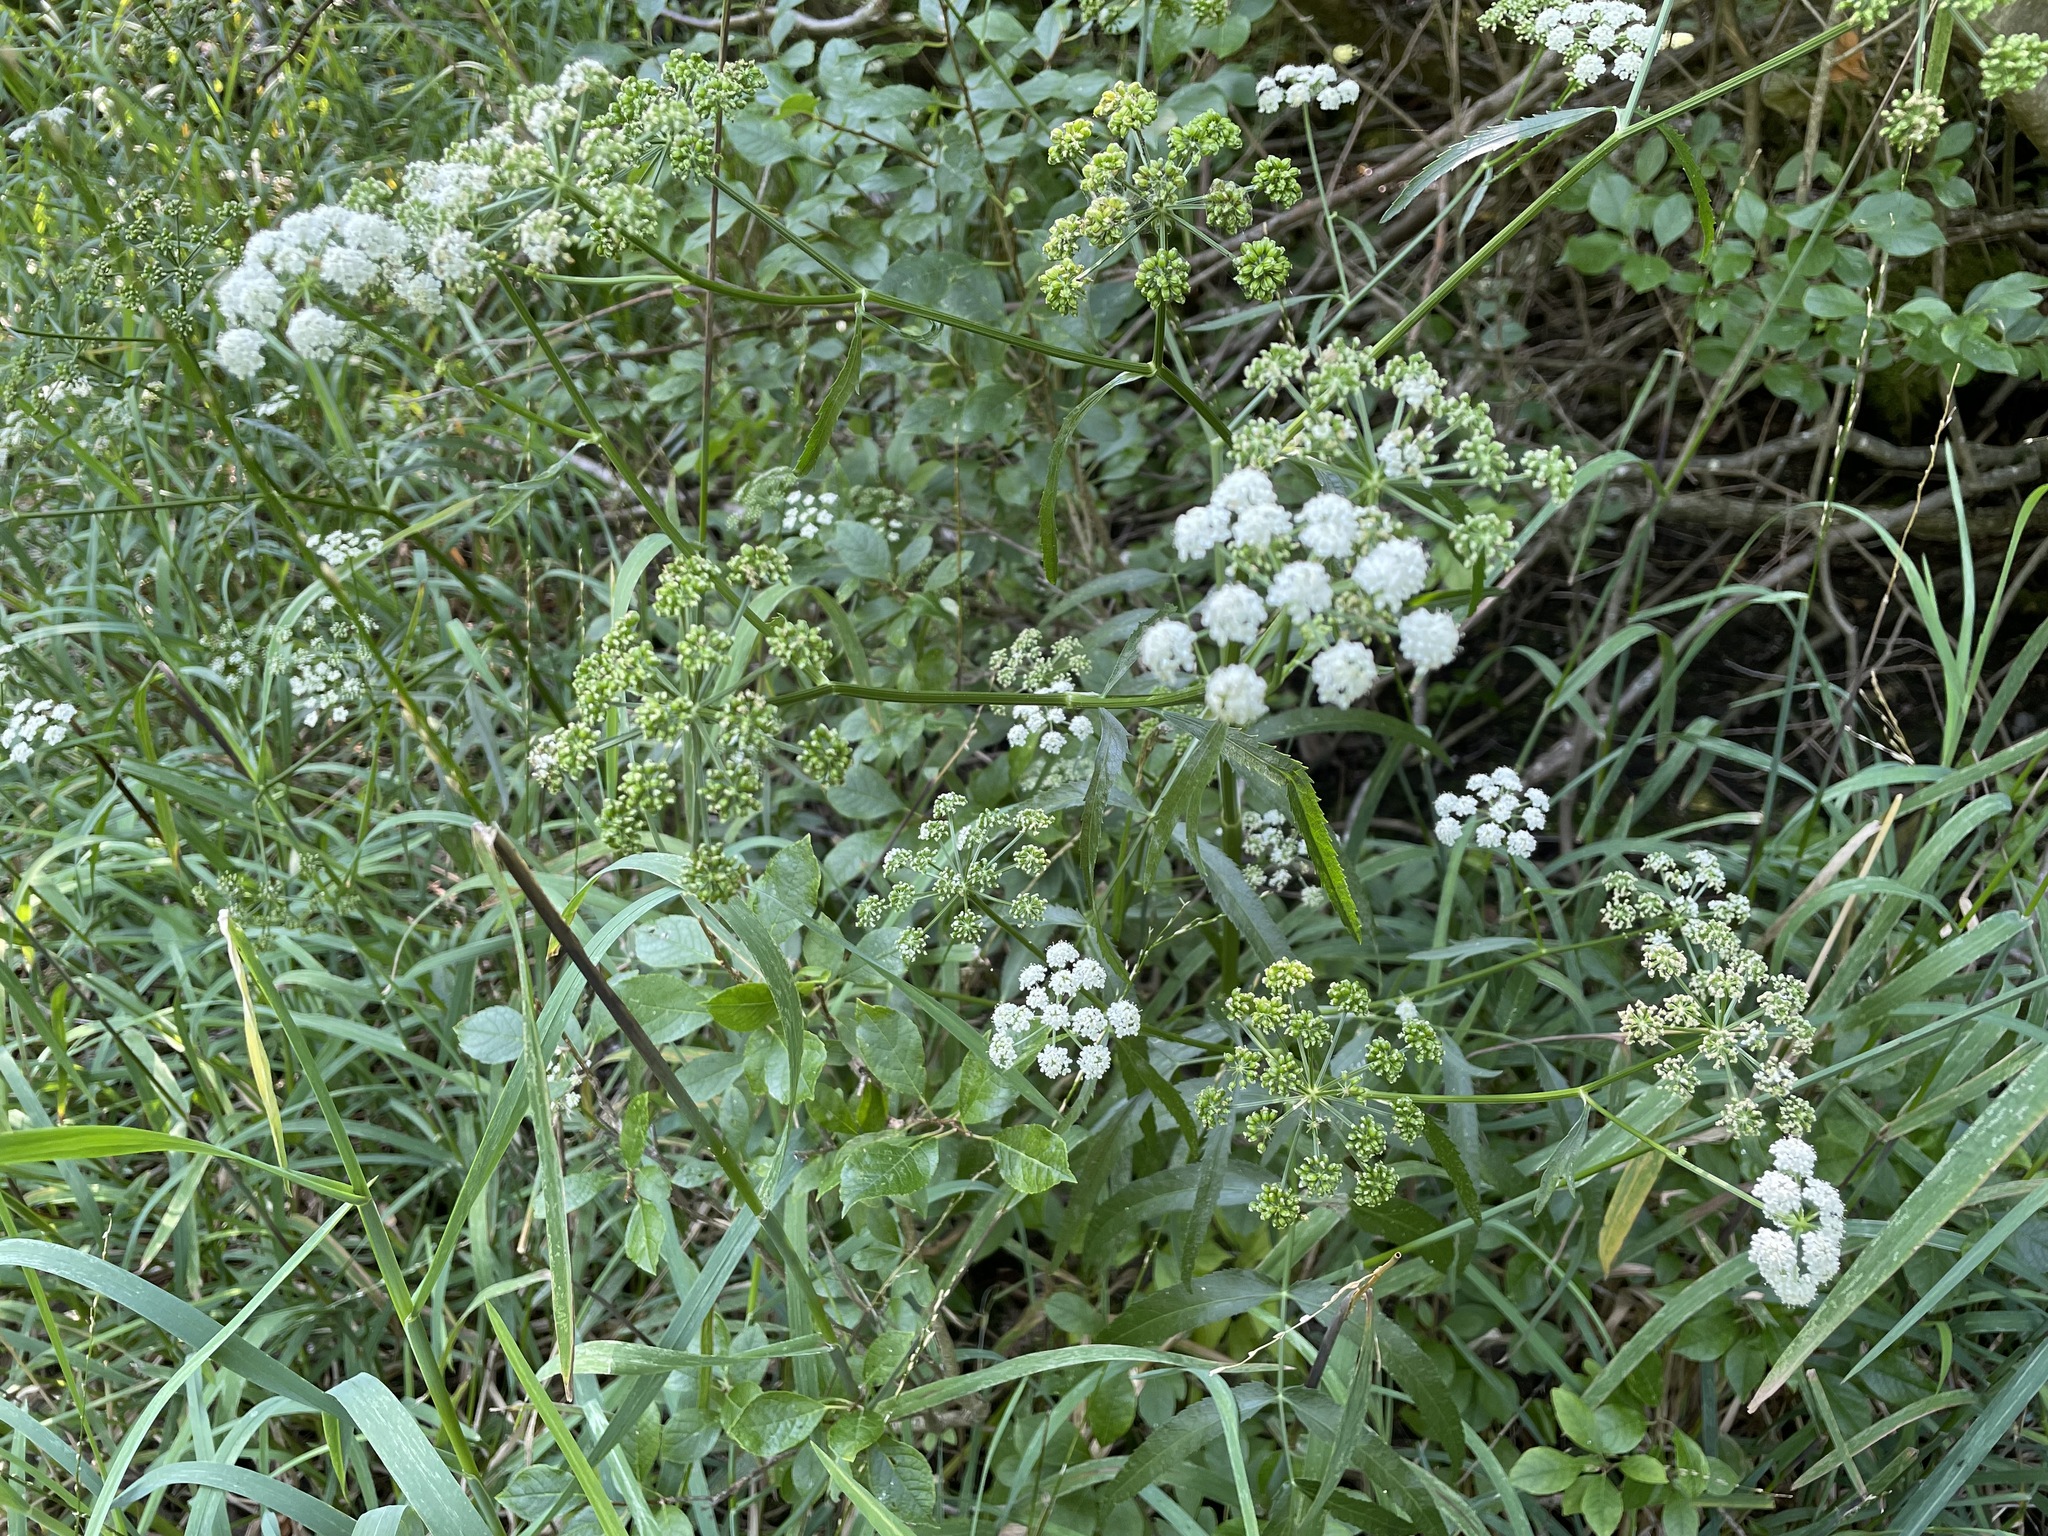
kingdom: Plantae
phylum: Tracheophyta
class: Magnoliopsida
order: Apiales
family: Apiaceae
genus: Sium
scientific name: Sium suave
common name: Hemlock water-parsnip
